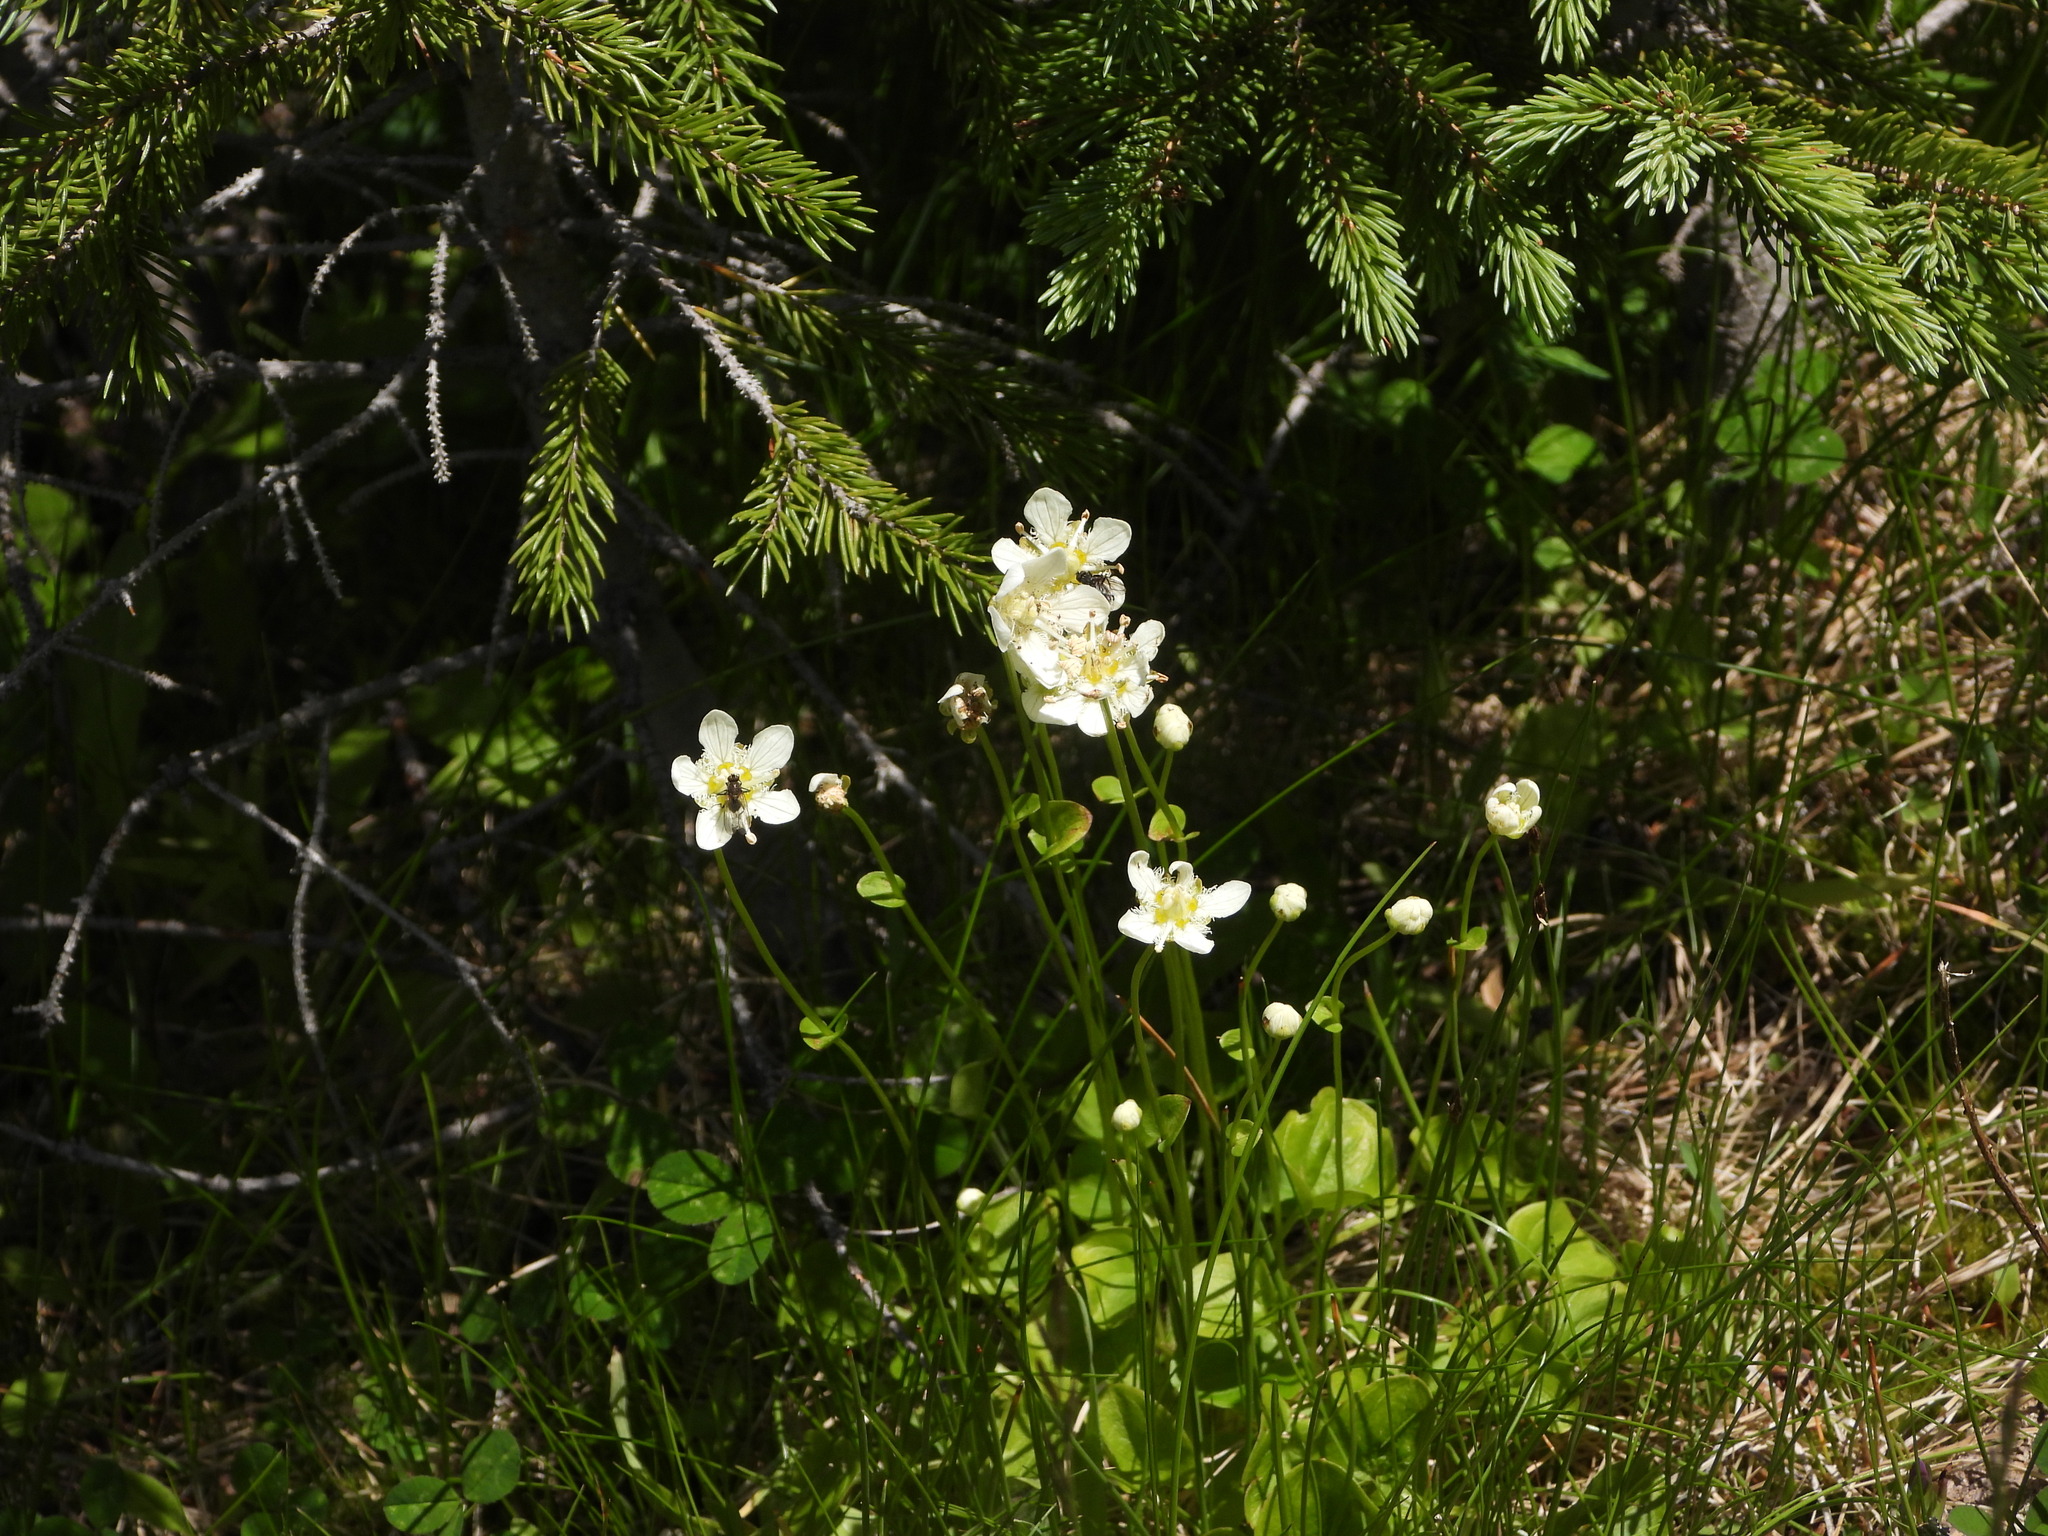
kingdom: Plantae
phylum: Tracheophyta
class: Magnoliopsida
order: Celastrales
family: Parnassiaceae
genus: Parnassia
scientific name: Parnassia fimbriata
